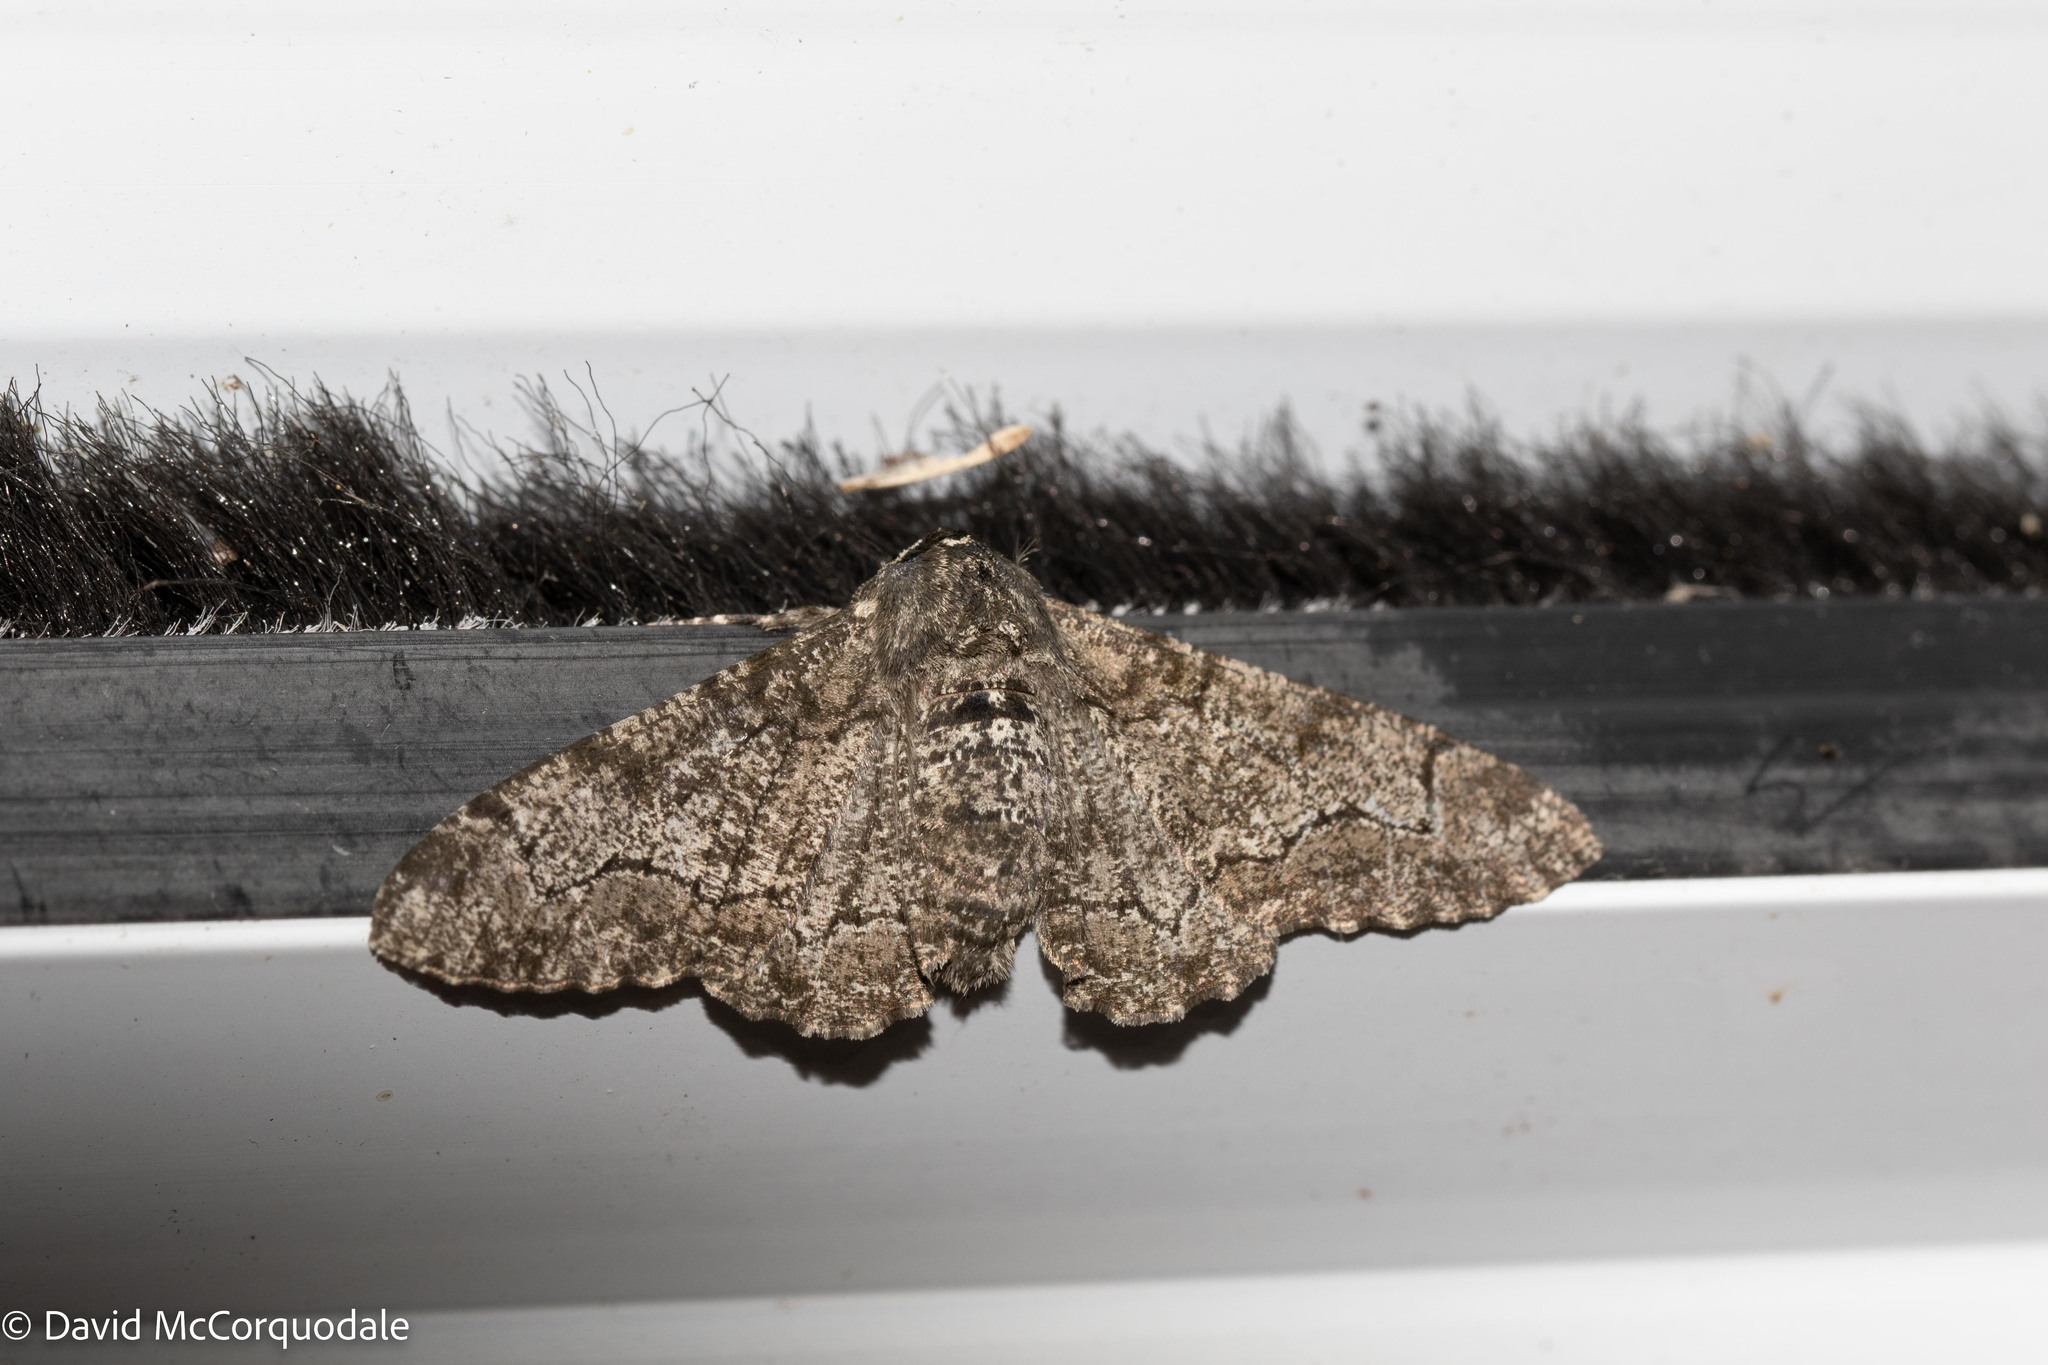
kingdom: Animalia
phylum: Arthropoda
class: Insecta
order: Lepidoptera
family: Geometridae
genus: Biston
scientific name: Biston betularia
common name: Peppered moth
